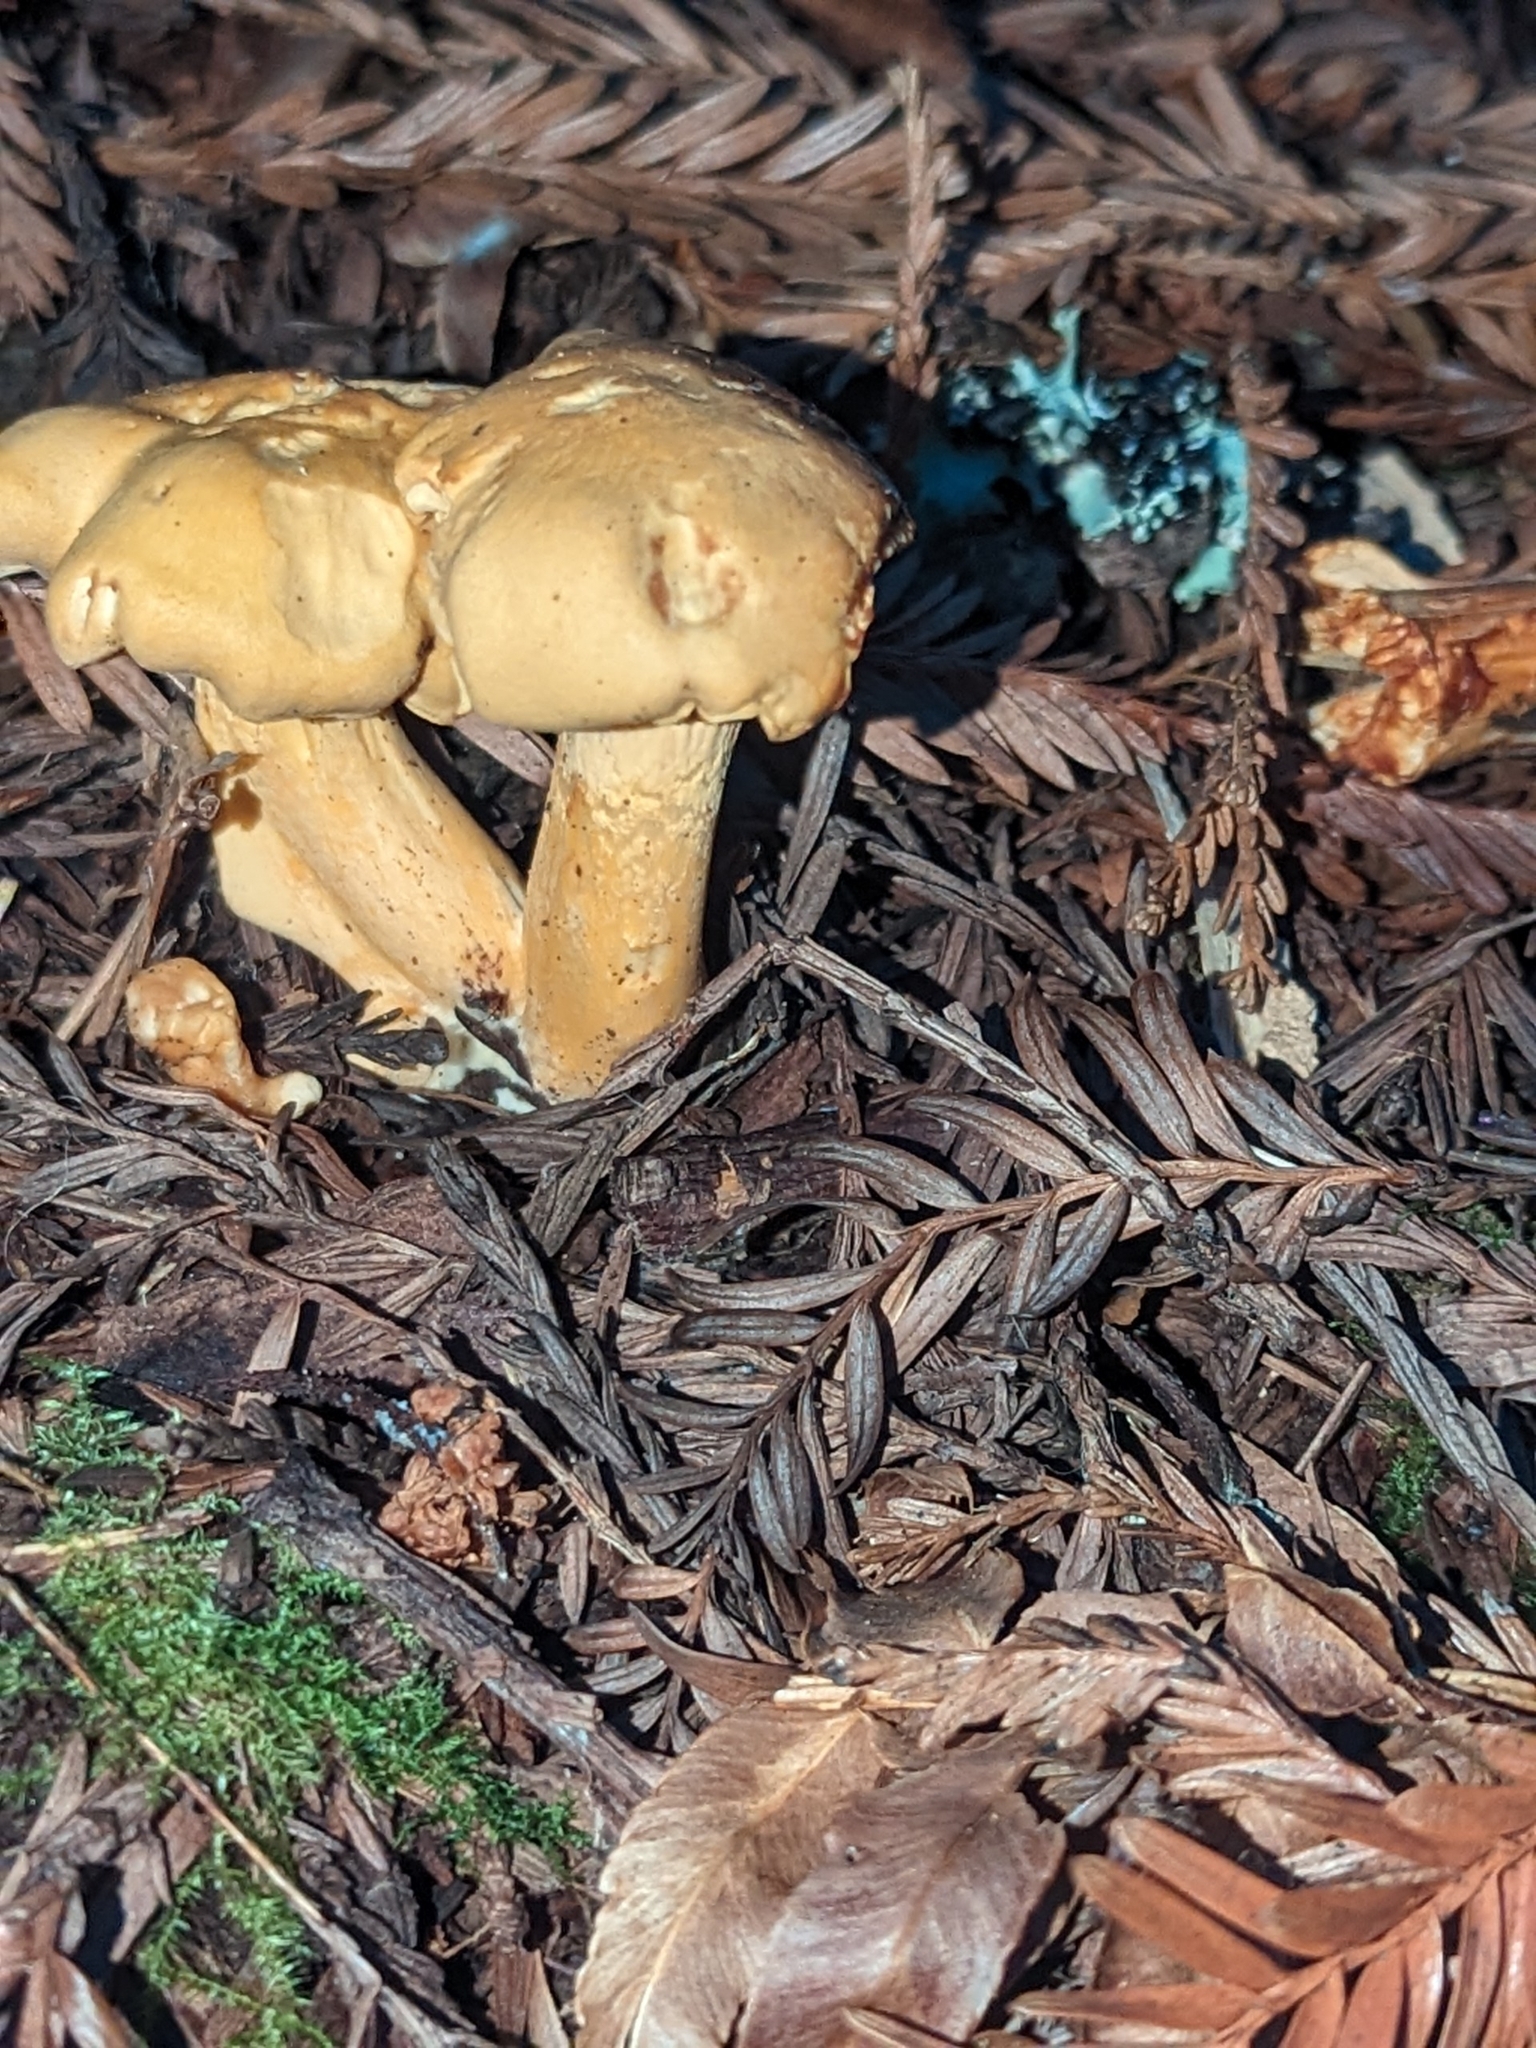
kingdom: Fungi
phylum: Basidiomycota
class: Agaricomycetes
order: Cantharellales
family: Hydnaceae
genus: Cantharellus
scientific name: Cantharellus formosus
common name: Pacific golden chanterelle
